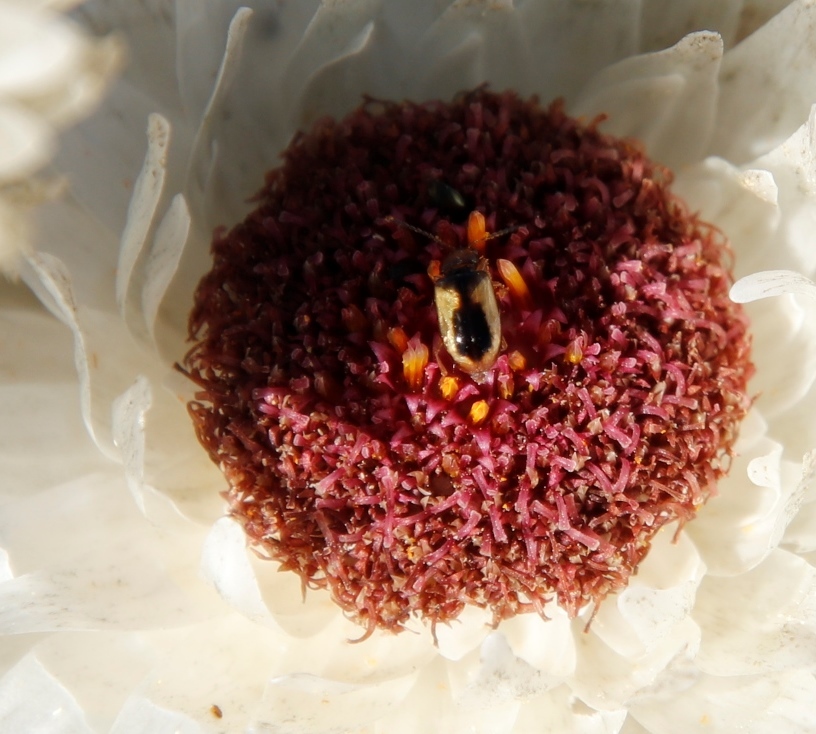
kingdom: Plantae
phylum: Tracheophyta
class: Magnoliopsida
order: Asterales
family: Asteraceae
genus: Syncarpha
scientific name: Syncarpha vestita
